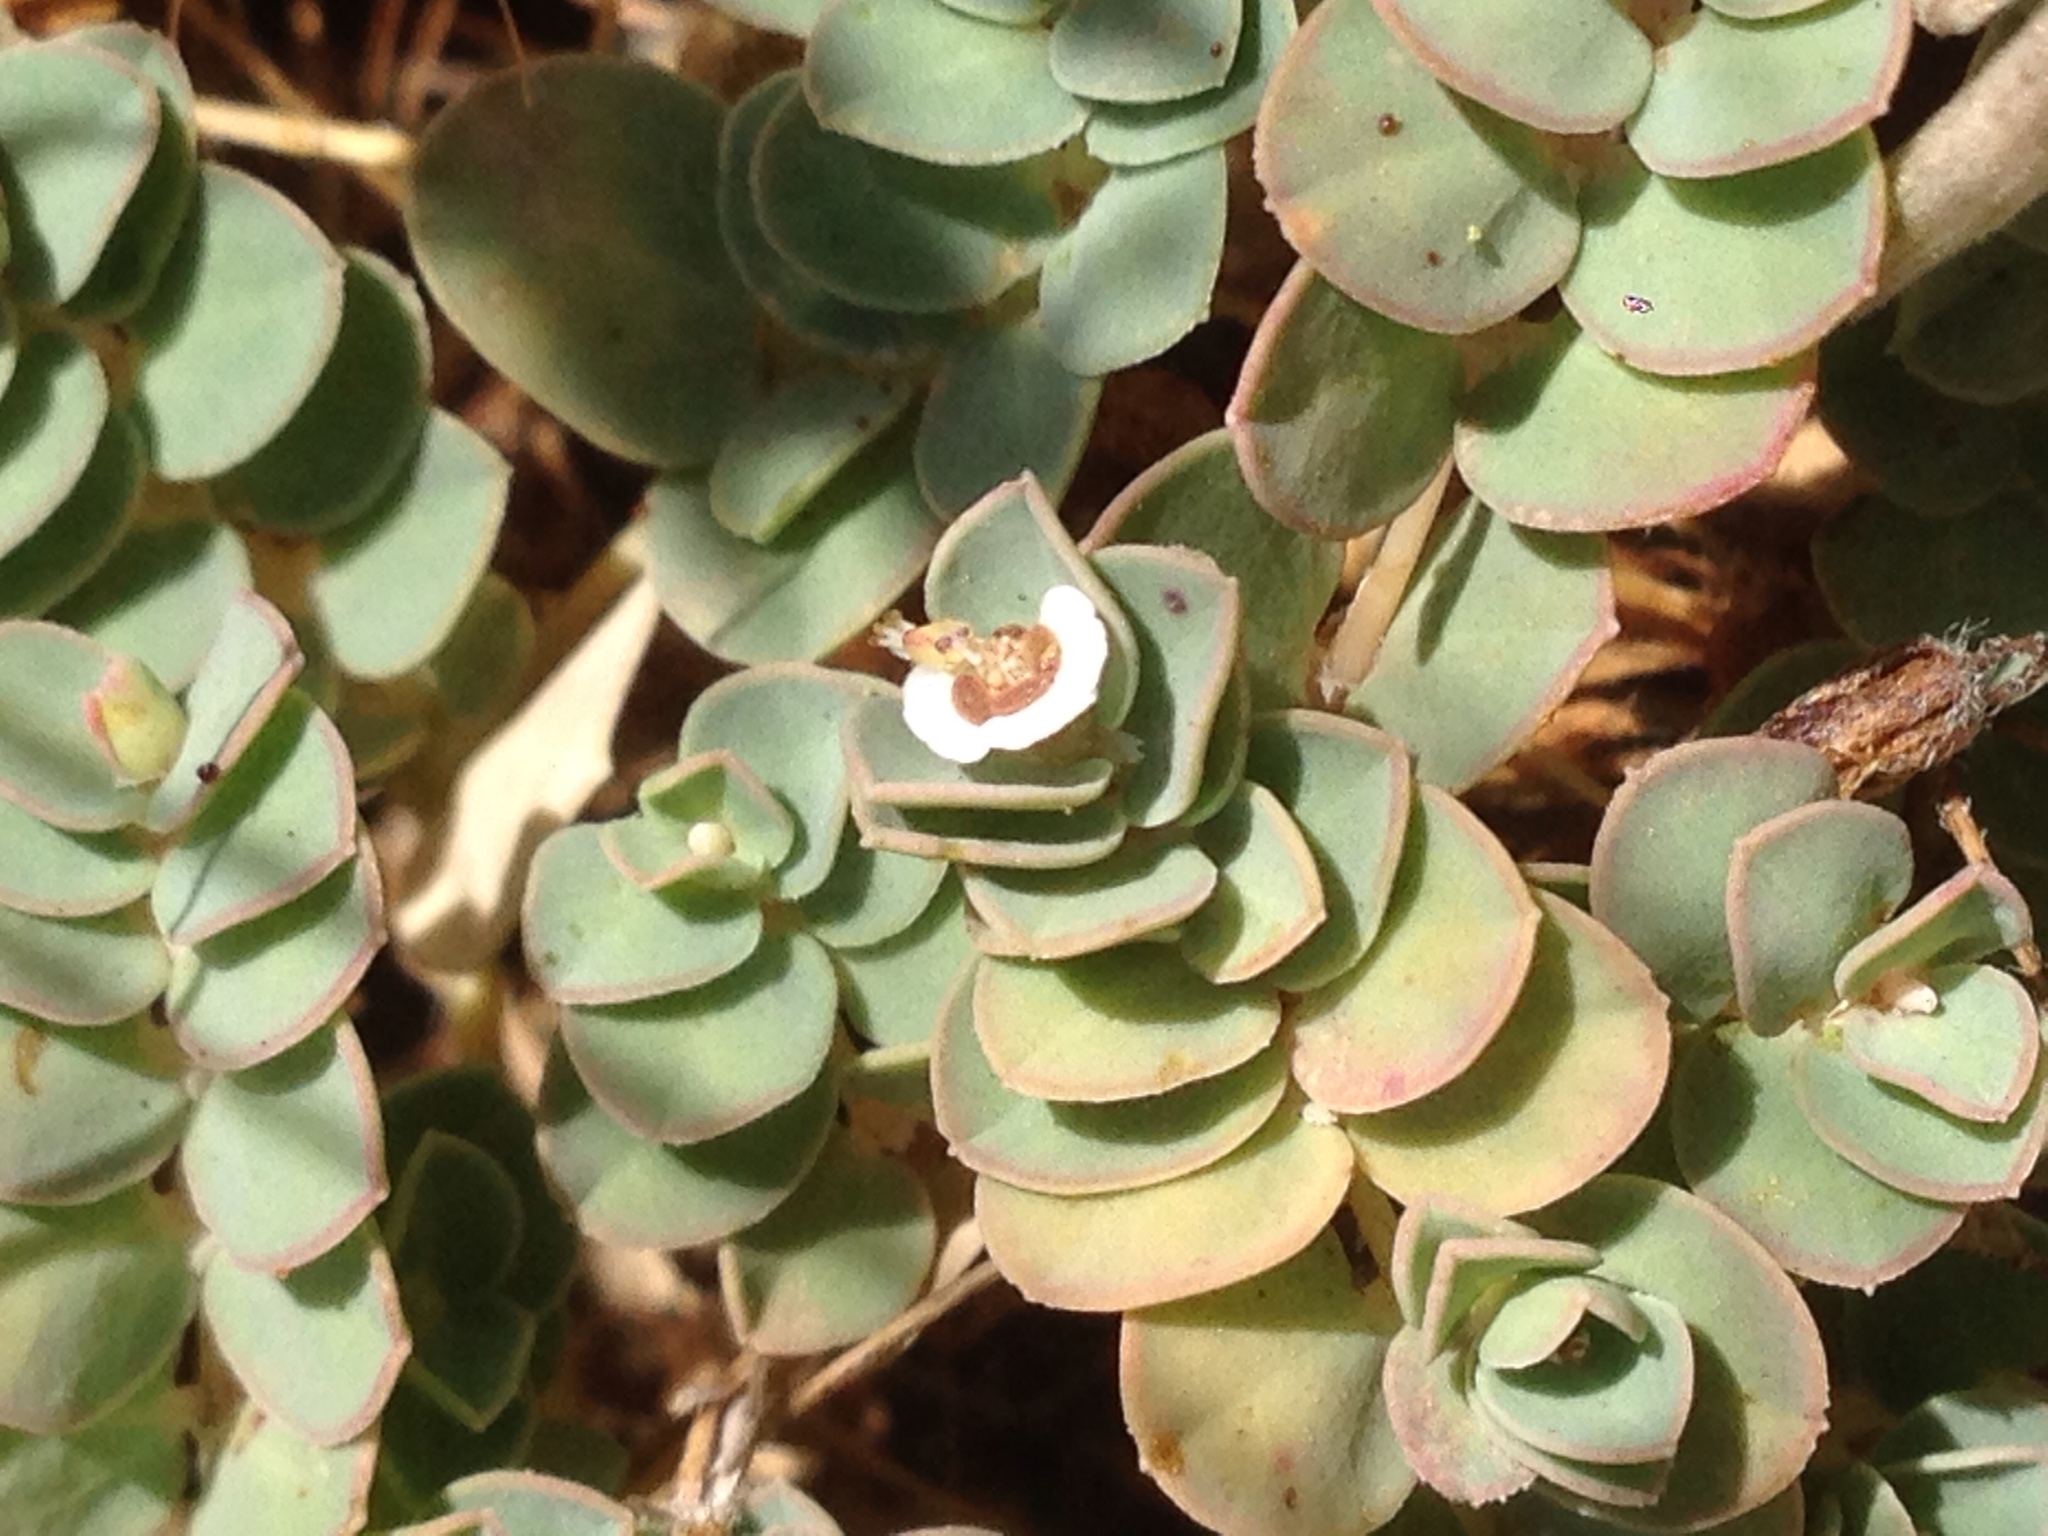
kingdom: Plantae
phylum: Tracheophyta
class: Magnoliopsida
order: Malpighiales
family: Euphorbiaceae
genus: Euphorbia
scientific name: Euphorbia albomarginata
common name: Whitemargin sandmat
